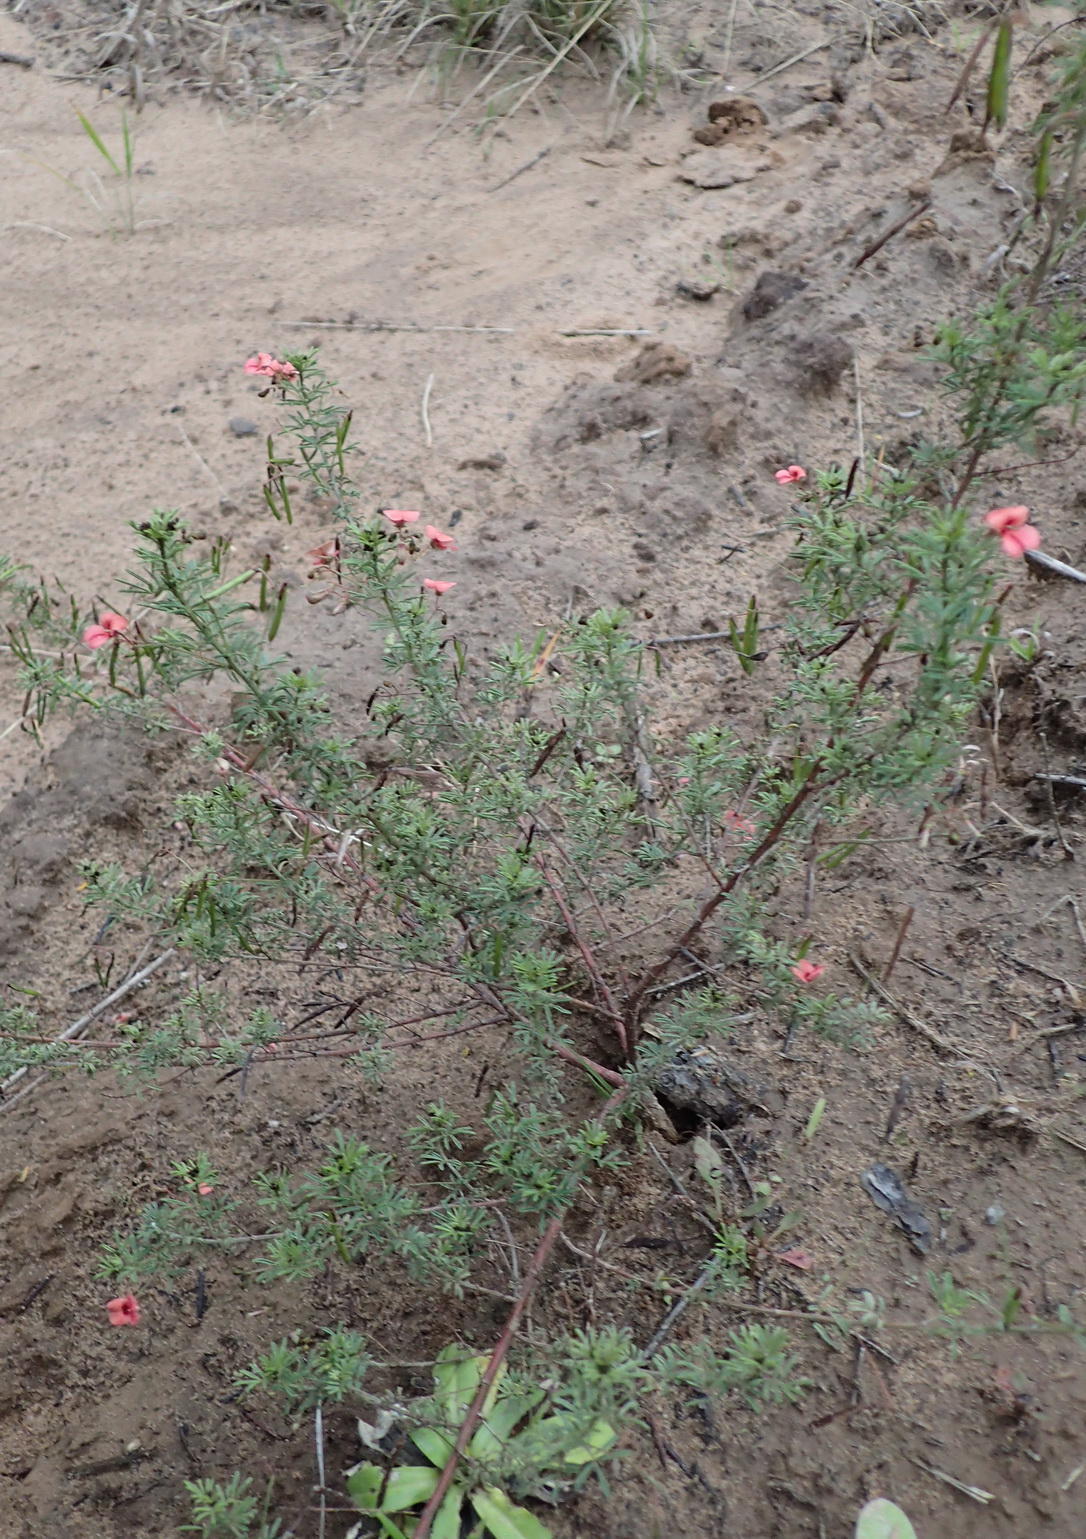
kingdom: Plantae
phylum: Tracheophyta
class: Magnoliopsida
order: Fabales
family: Fabaceae
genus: Indigofera
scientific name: Indigofera verrucosa
